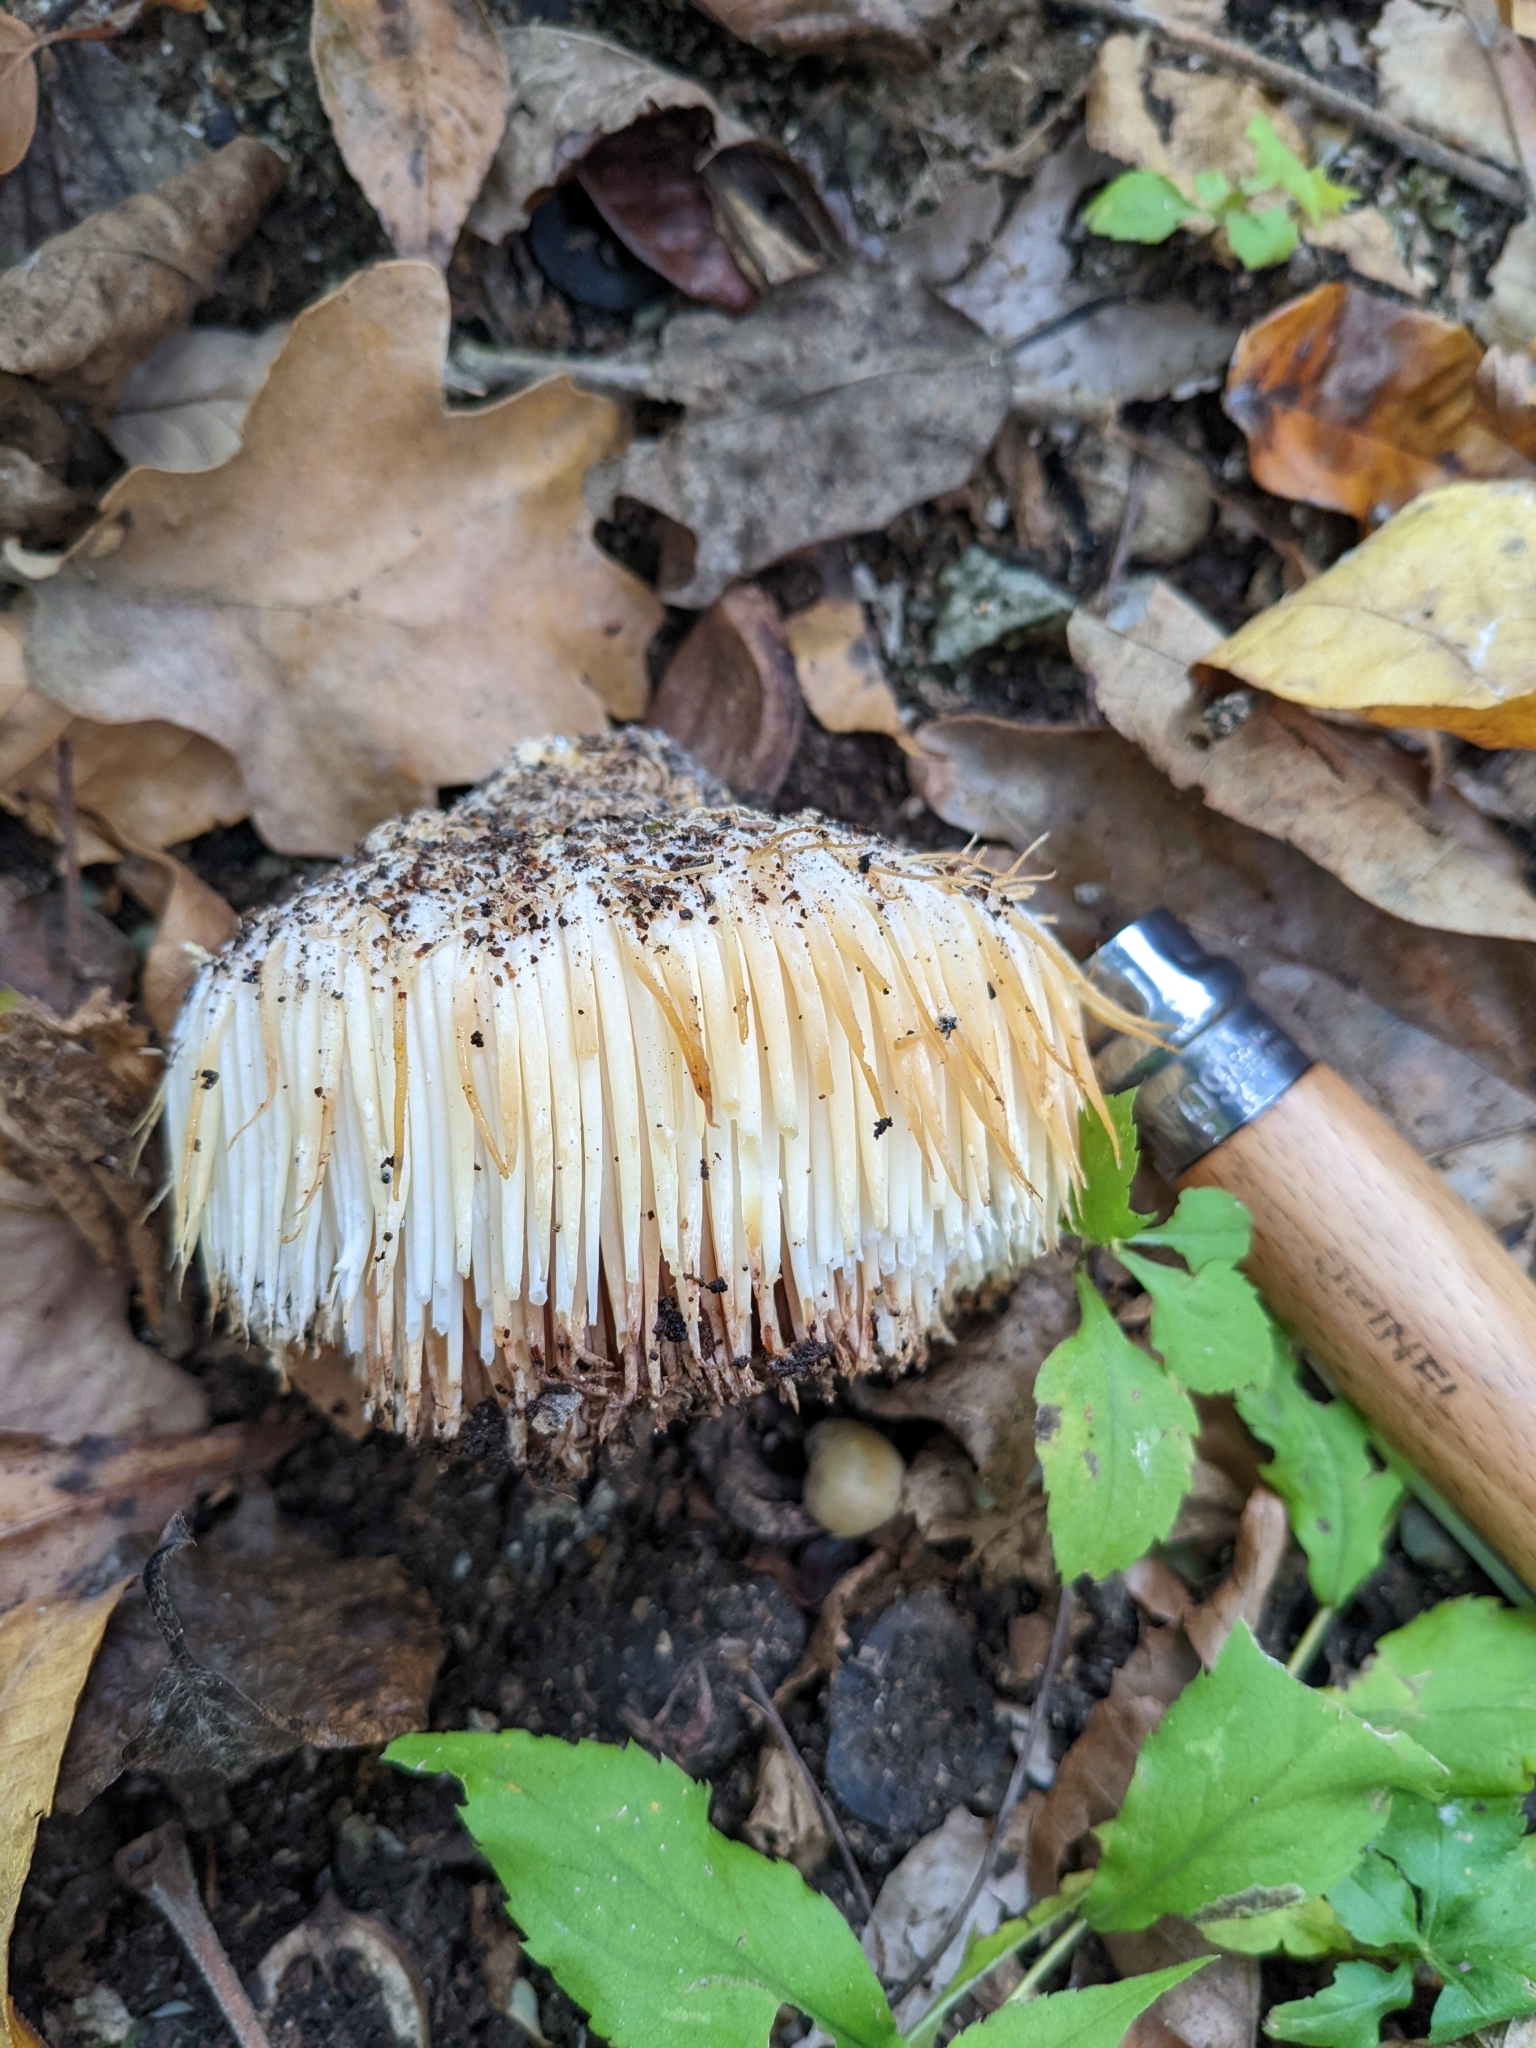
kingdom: Fungi
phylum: Basidiomycota
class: Agaricomycetes
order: Russulales
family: Hericiaceae
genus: Hericium
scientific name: Hericium erinaceus
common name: Bearded tooth
